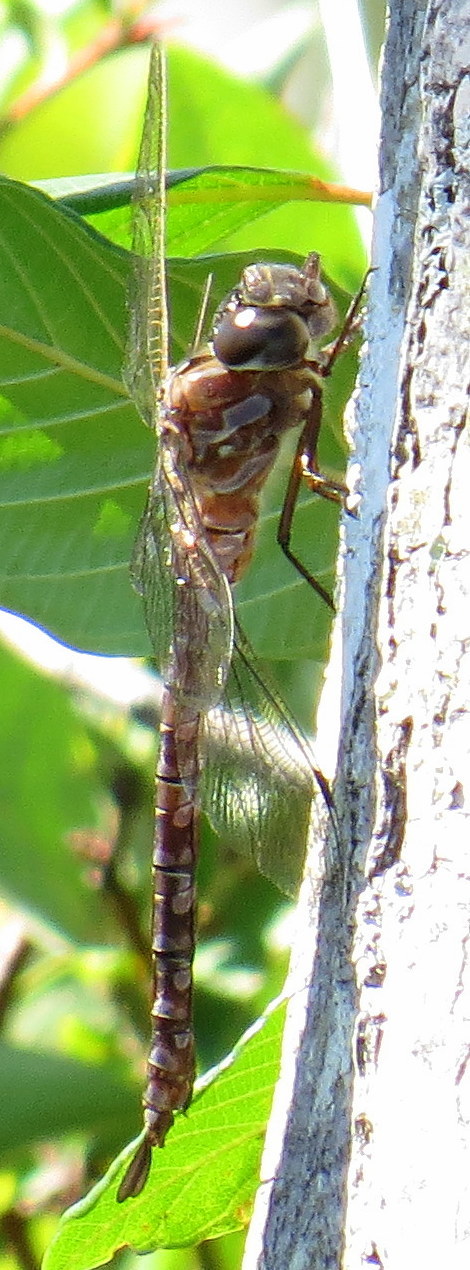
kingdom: Animalia
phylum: Arthropoda
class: Insecta
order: Odonata
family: Aeshnidae
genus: Aeshna
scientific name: Aeshna canadensis
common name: Canada darner
